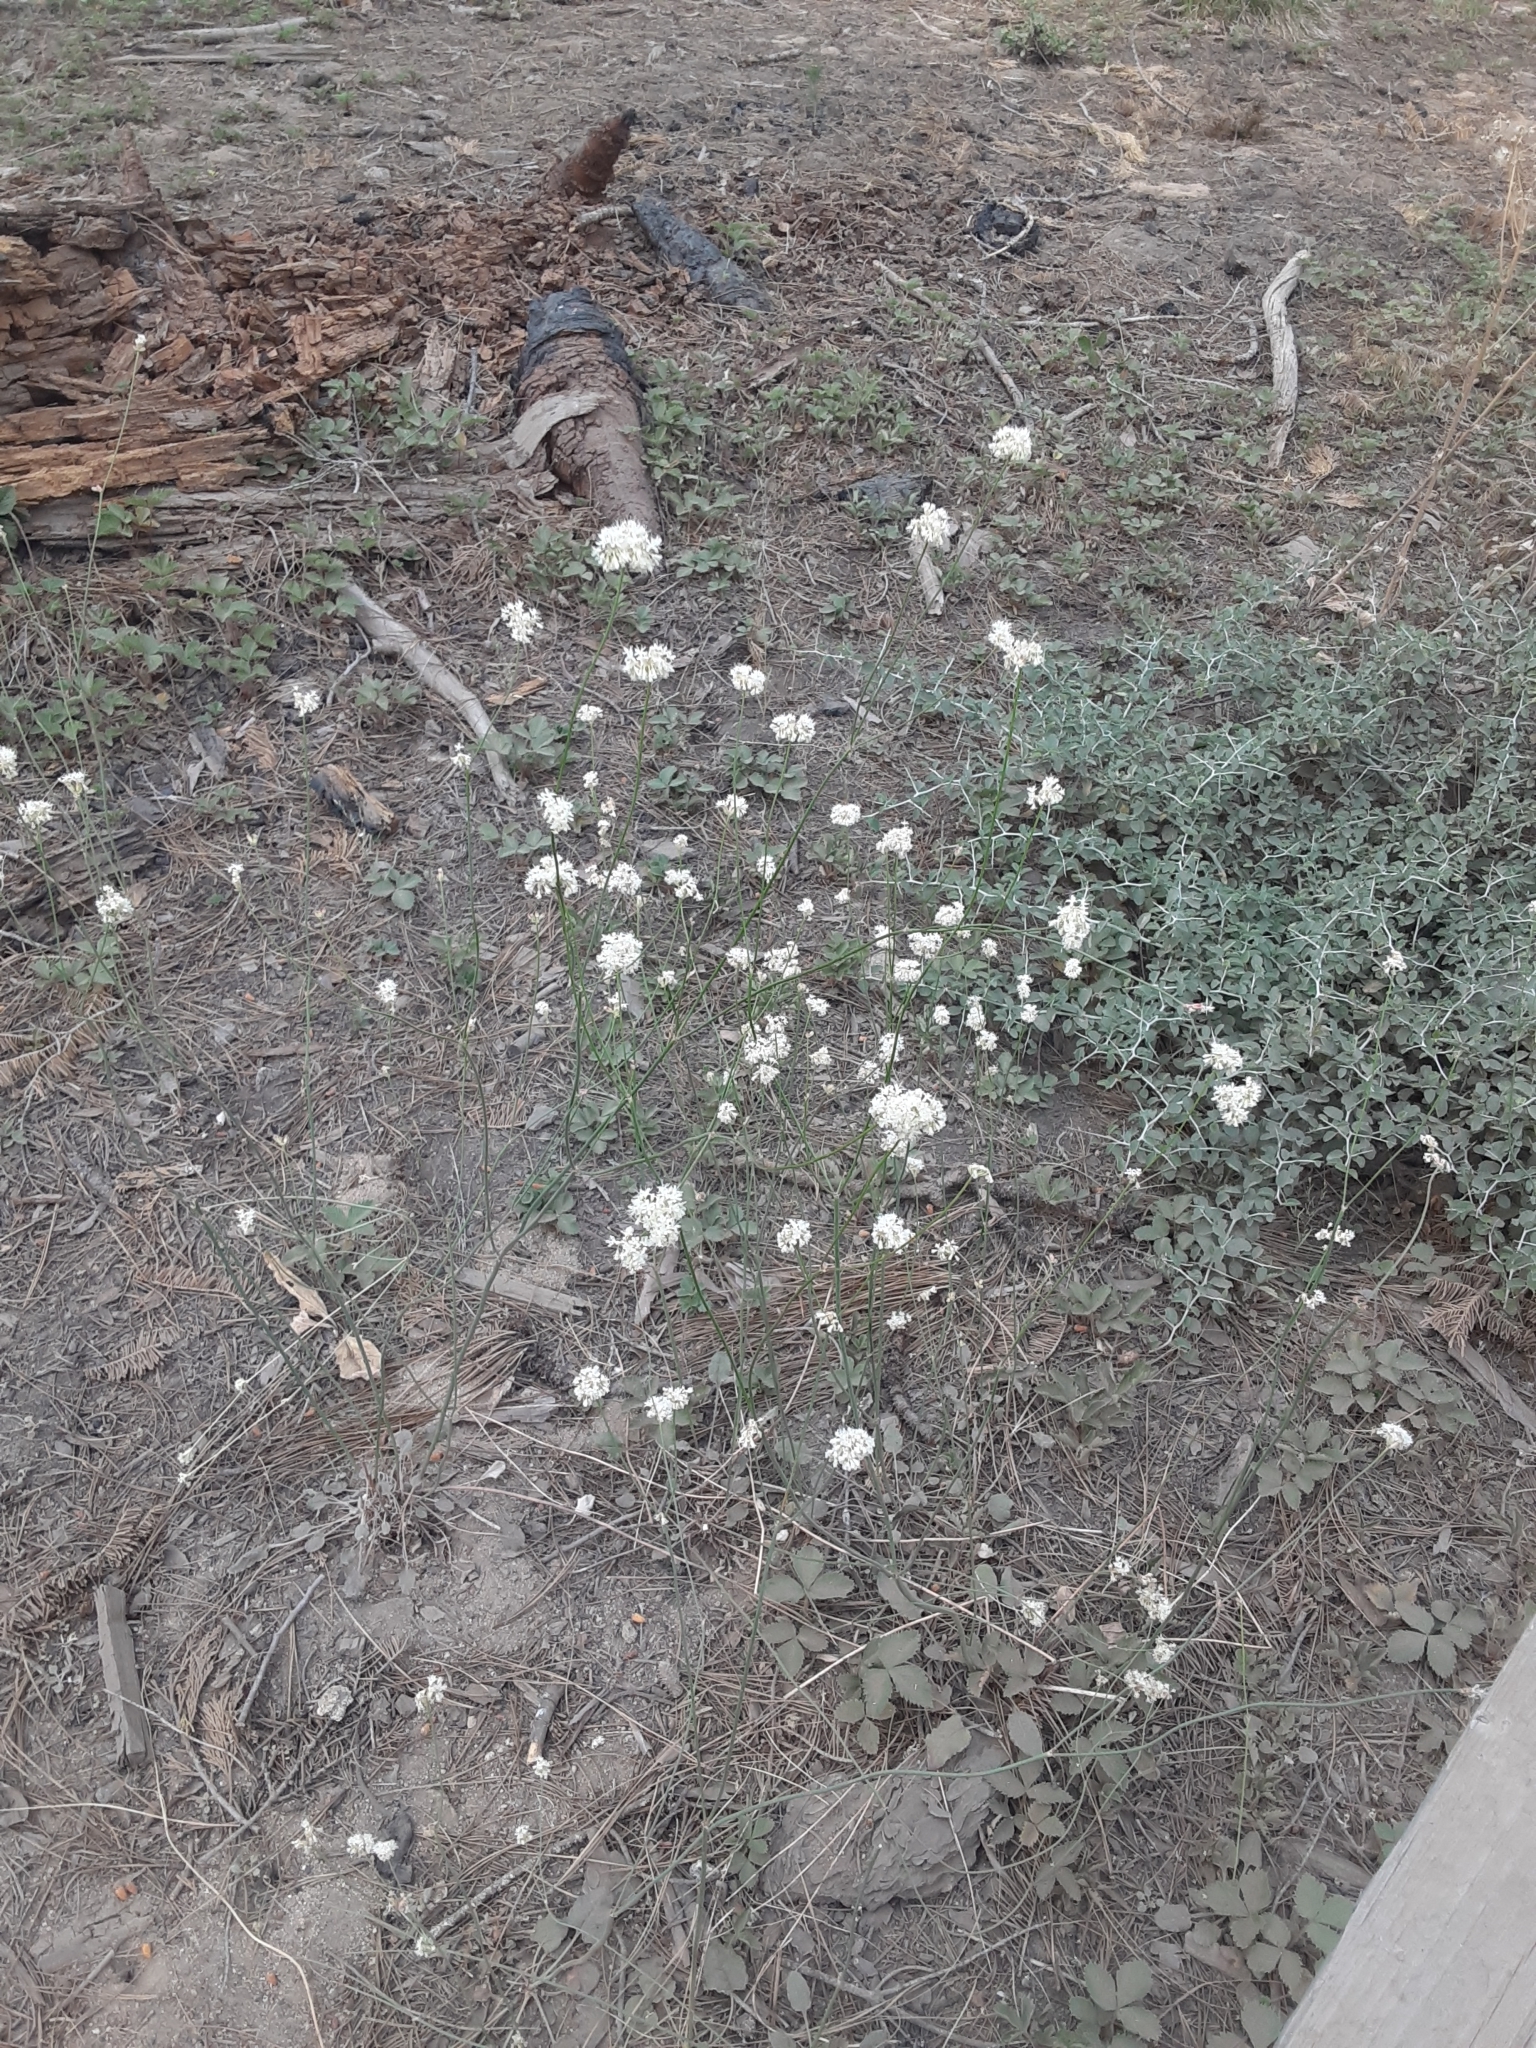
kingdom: Plantae
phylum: Tracheophyta
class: Magnoliopsida
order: Caryophyllales
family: Polygonaceae
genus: Eriogonum
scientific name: Eriogonum nudum
